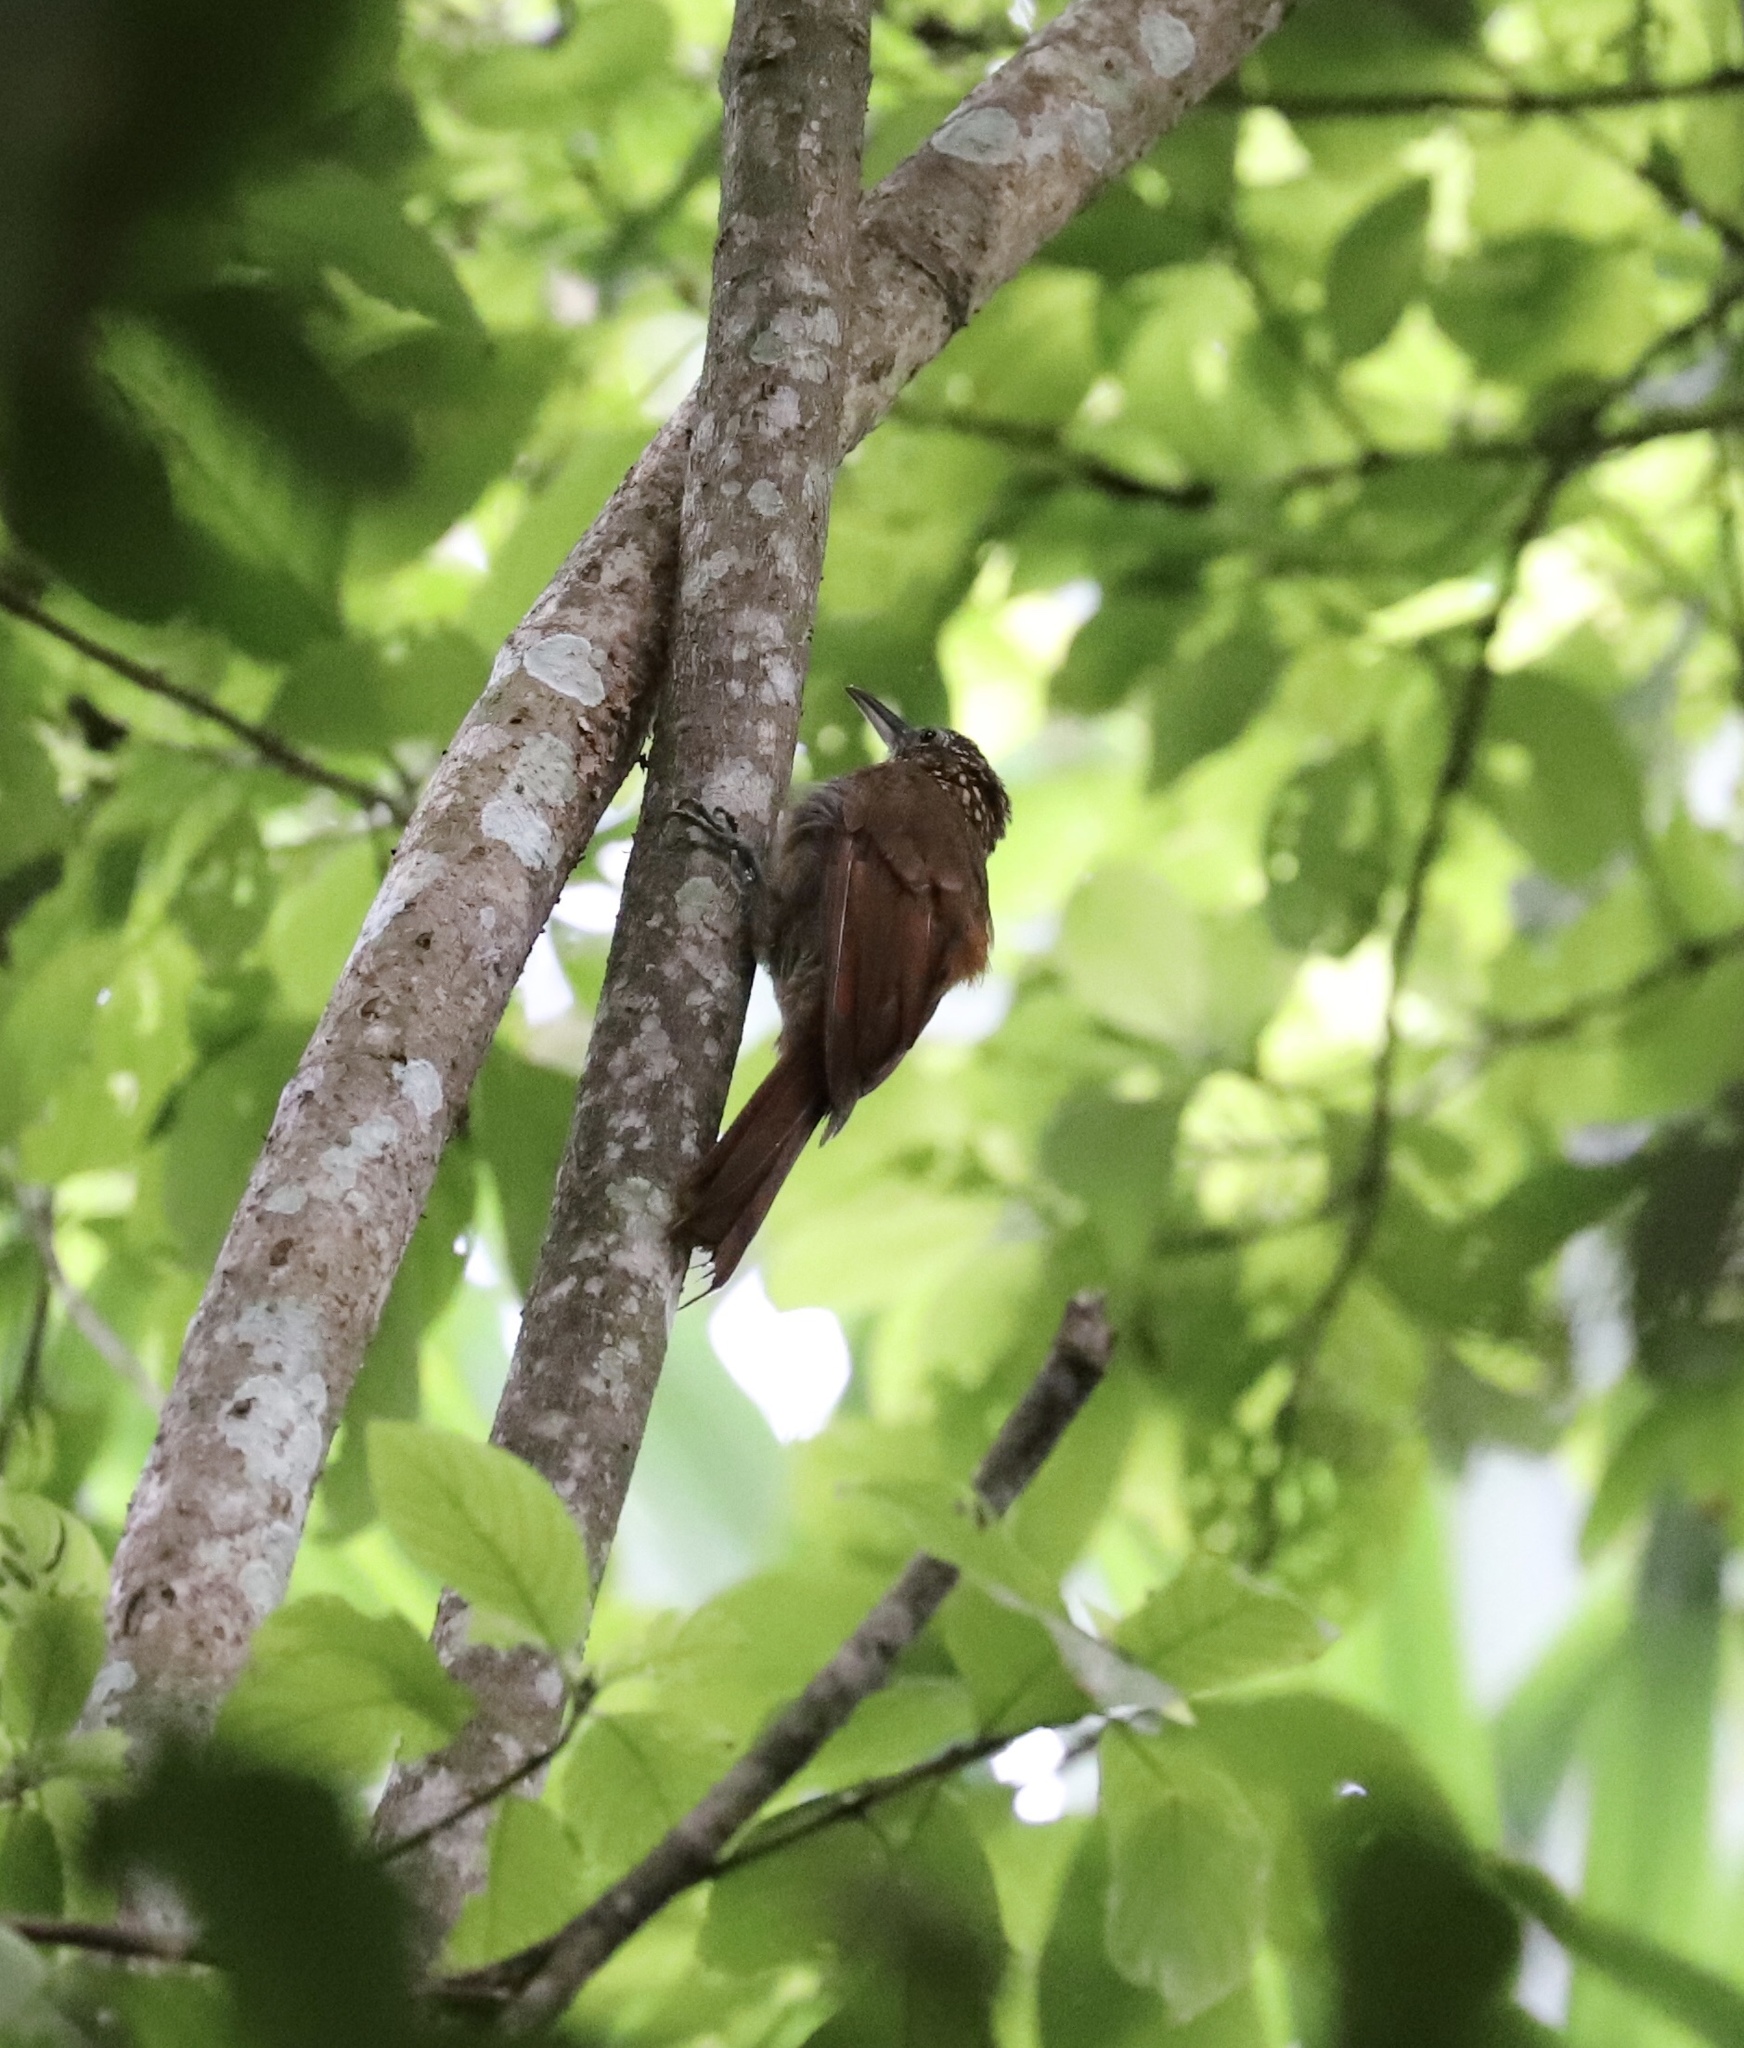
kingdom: Animalia
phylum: Chordata
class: Aves
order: Passeriformes
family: Furnariidae
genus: Xiphorhynchus
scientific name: Xiphorhynchus susurrans
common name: Cocoa woodcreeper
